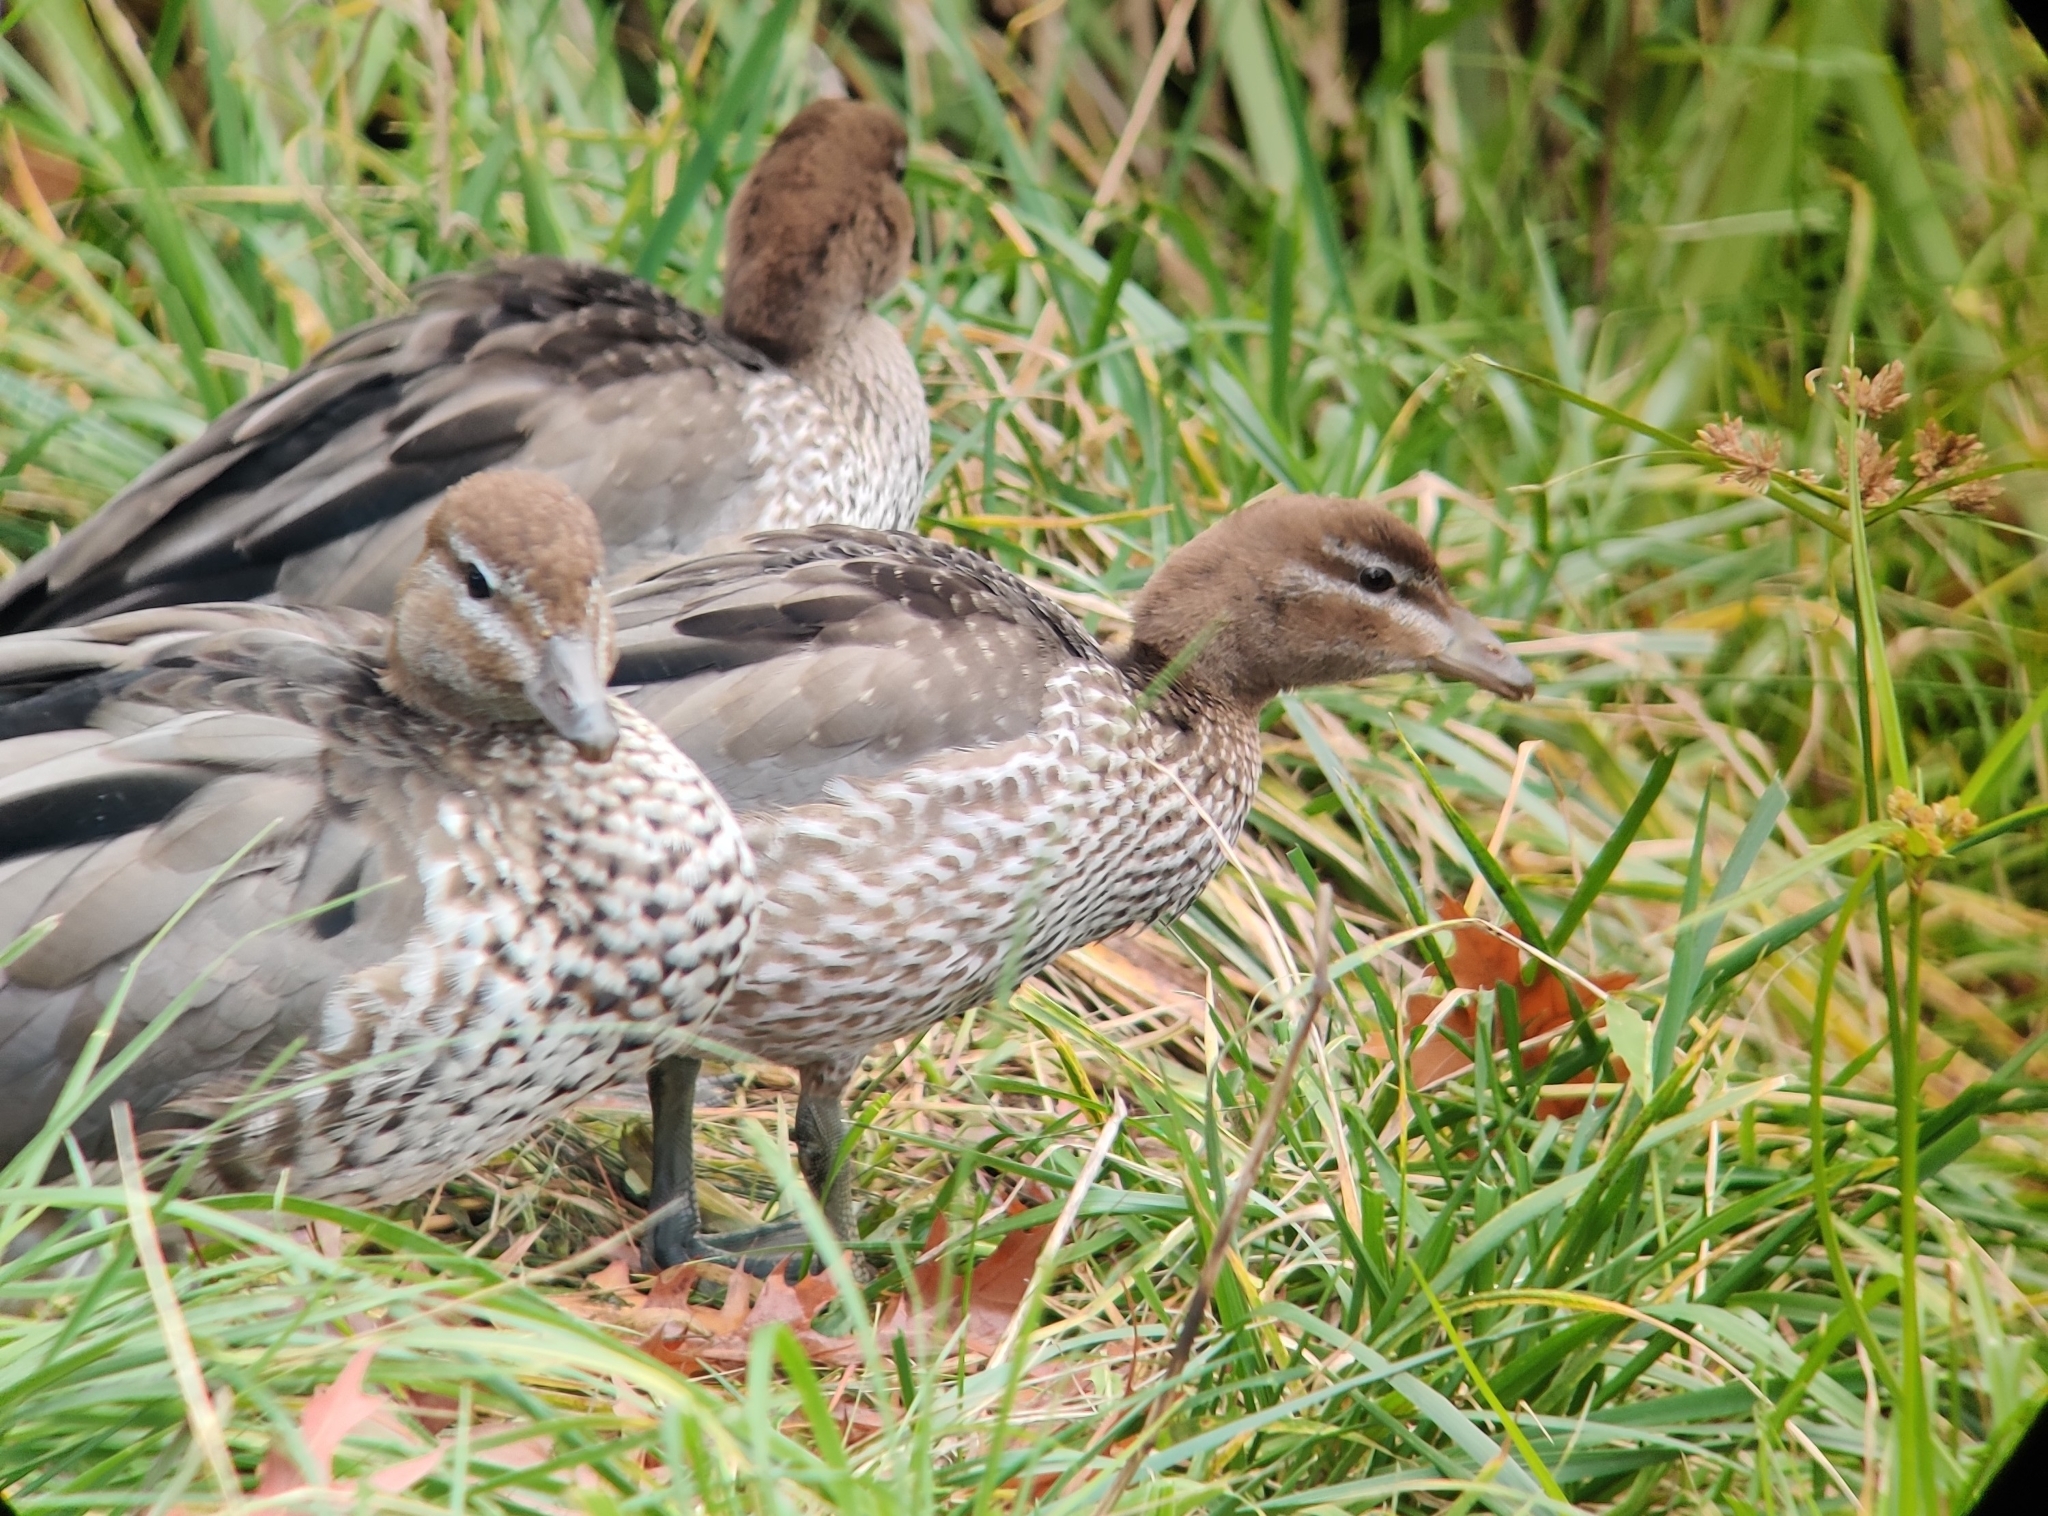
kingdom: Animalia
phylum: Chordata
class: Aves
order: Anseriformes
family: Anatidae
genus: Chenonetta
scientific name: Chenonetta jubata
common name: Maned duck
